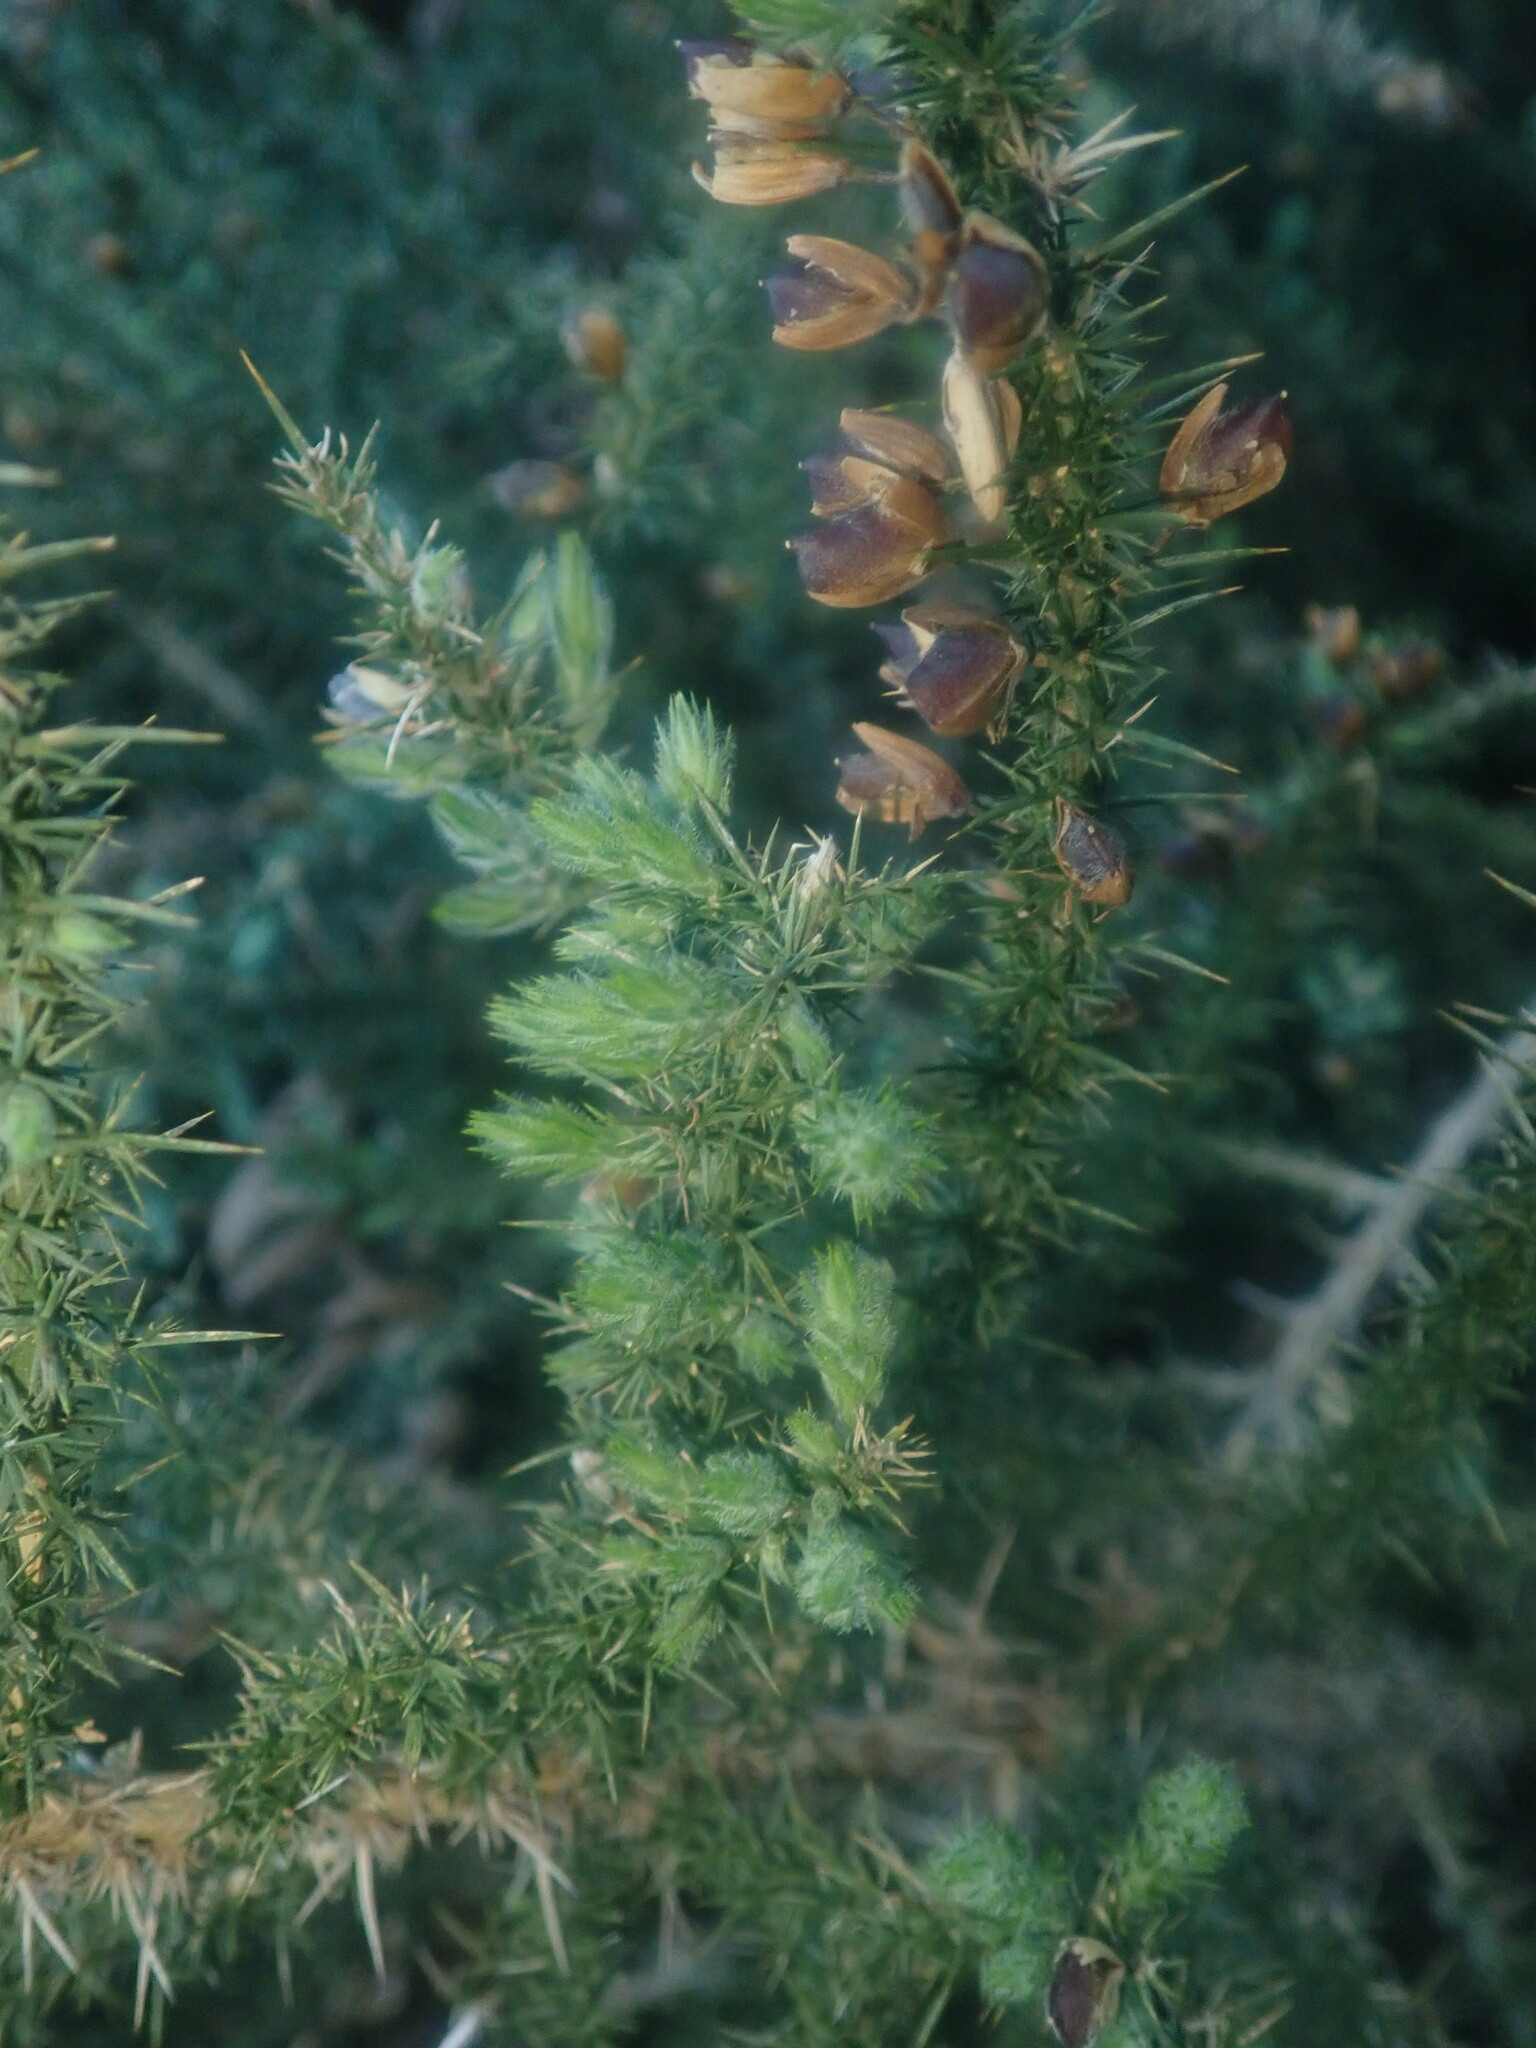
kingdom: Plantae
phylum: Tracheophyta
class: Magnoliopsida
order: Fabales
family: Fabaceae
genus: Ulex
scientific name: Ulex europaeus
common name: Common gorse
